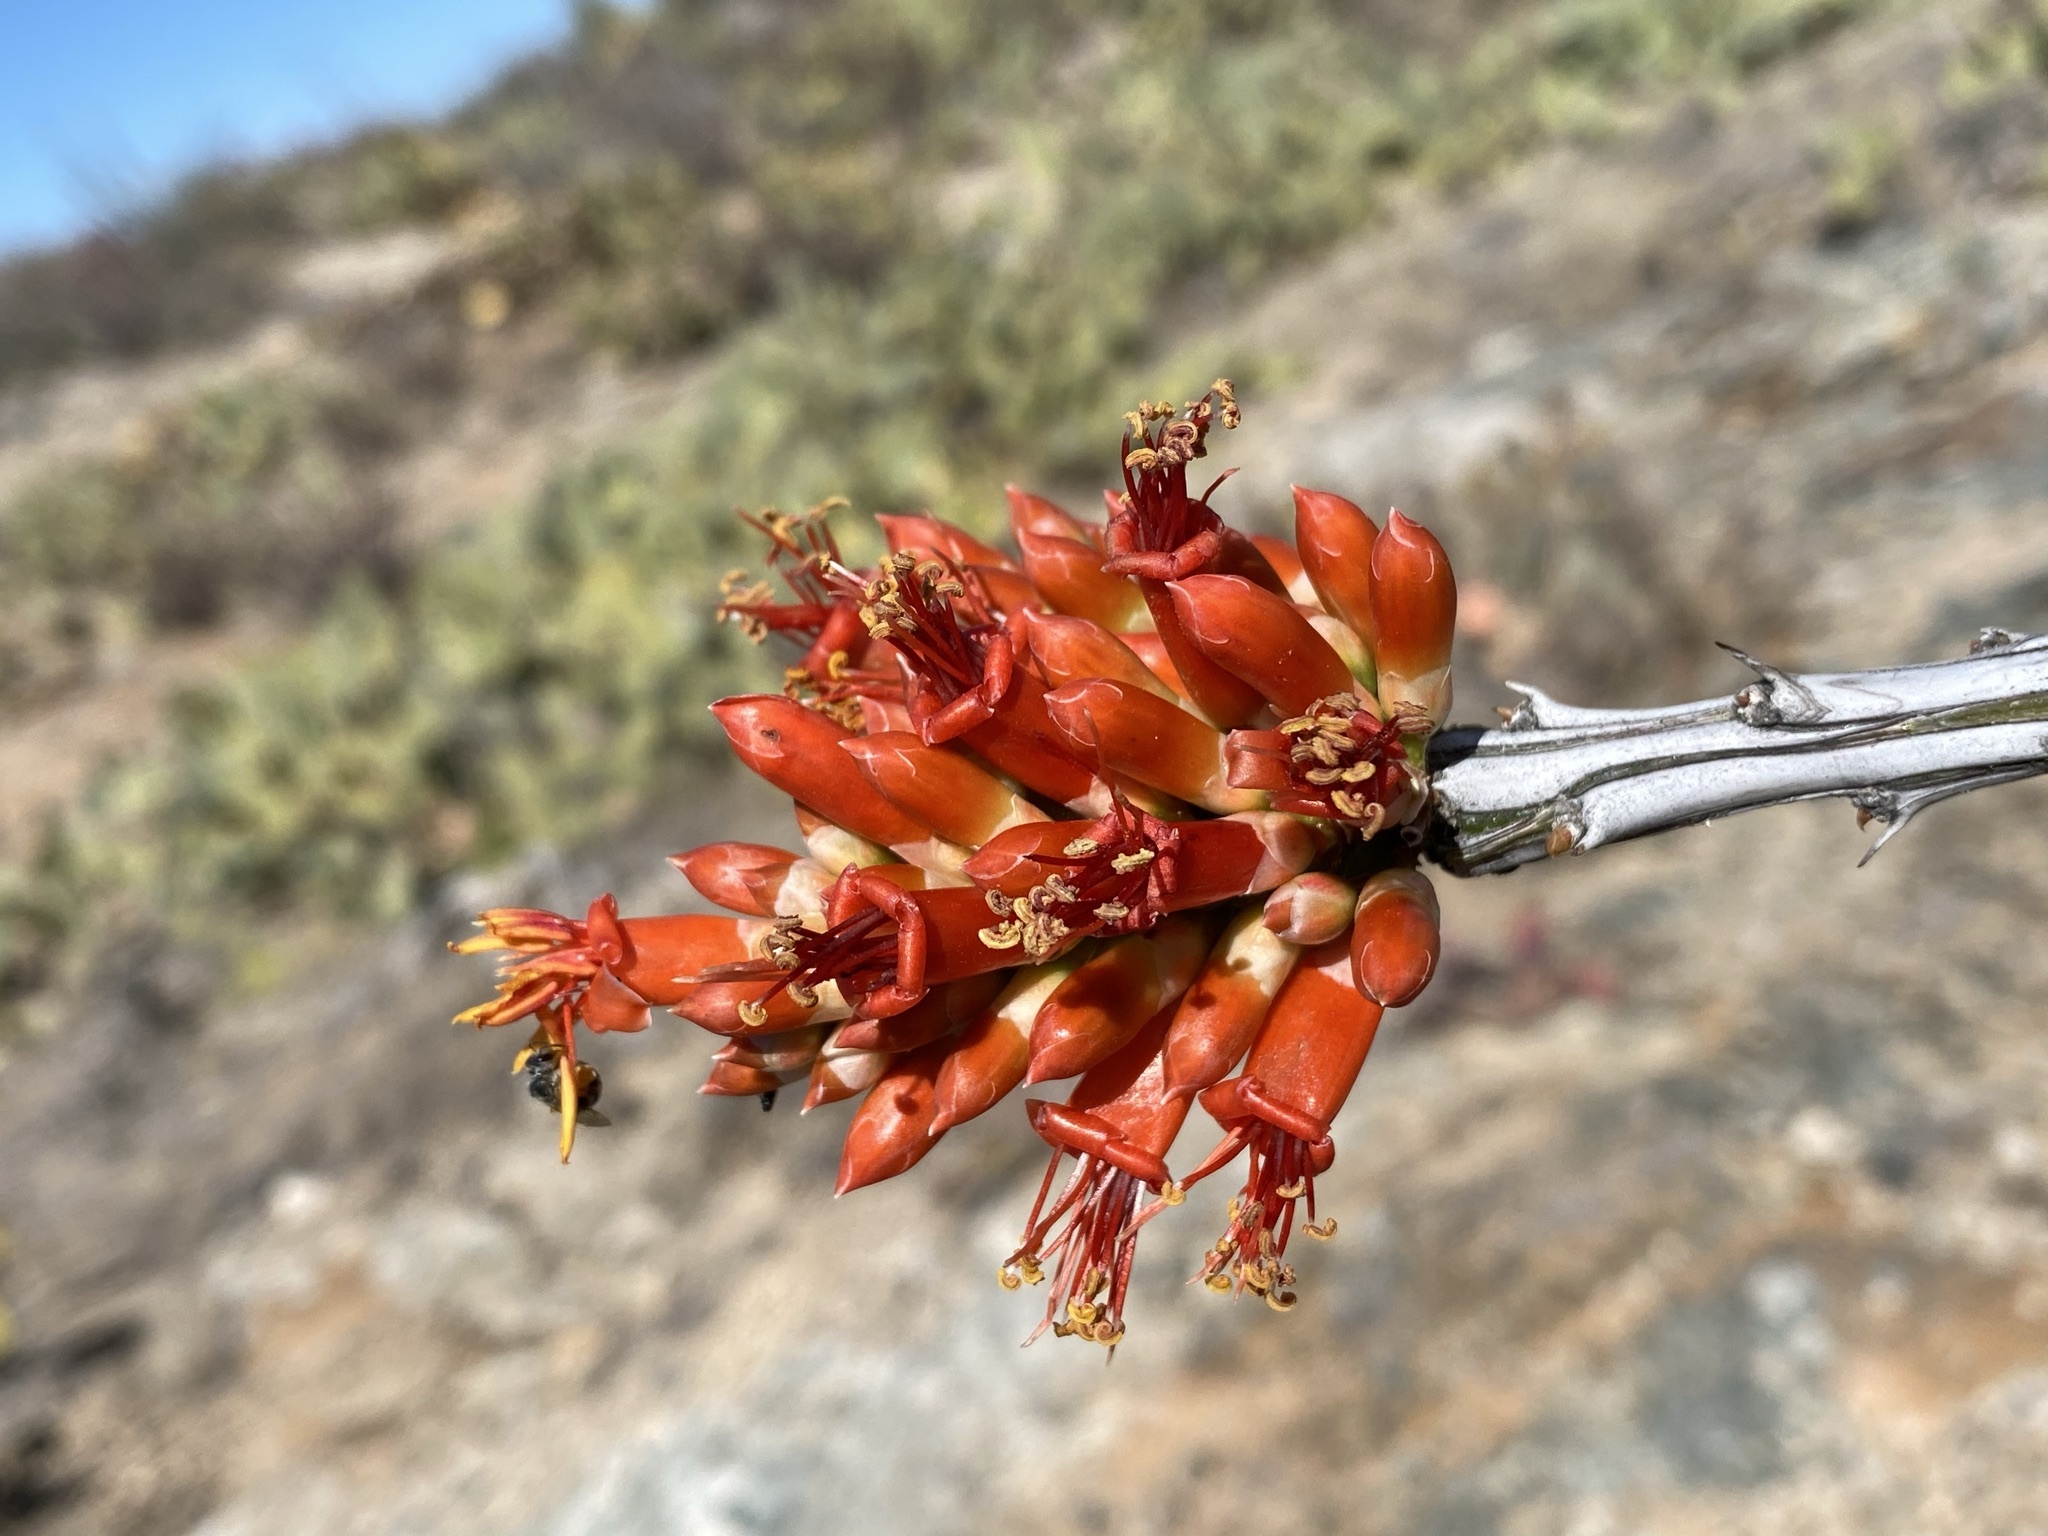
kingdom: Plantae
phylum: Tracheophyta
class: Magnoliopsida
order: Ericales
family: Fouquieriaceae
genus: Fouquieria
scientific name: Fouquieria splendens
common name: Vine-cactus
